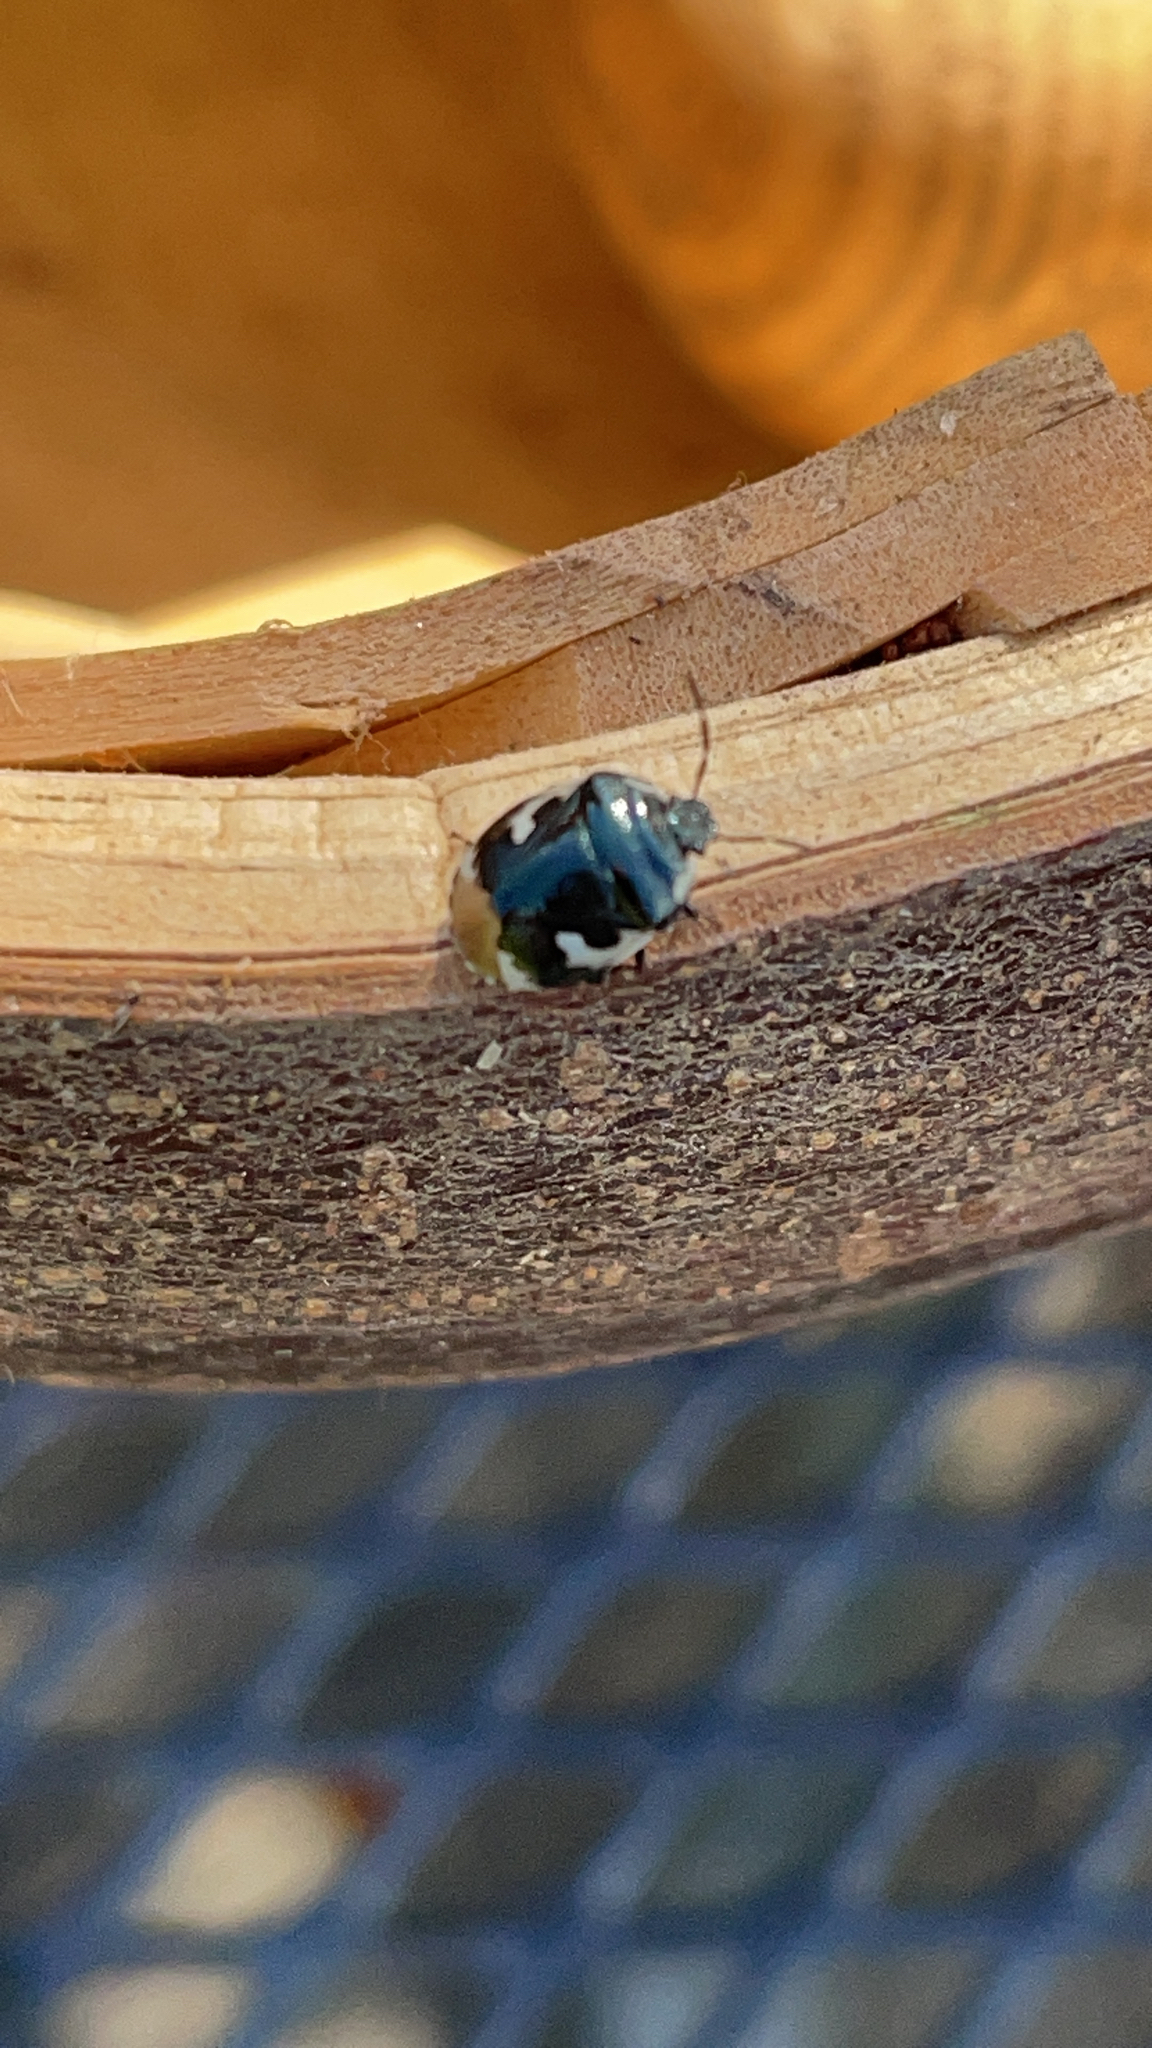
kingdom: Animalia
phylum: Arthropoda
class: Insecta
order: Hemiptera
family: Cydnidae
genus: Tritomegas
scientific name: Tritomegas bicolor
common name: Pied shieldbug
